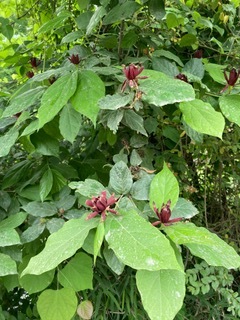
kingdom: Plantae
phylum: Tracheophyta
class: Magnoliopsida
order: Laurales
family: Calycanthaceae
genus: Calycanthus
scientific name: Calycanthus floridus
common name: Carolina-allspice
